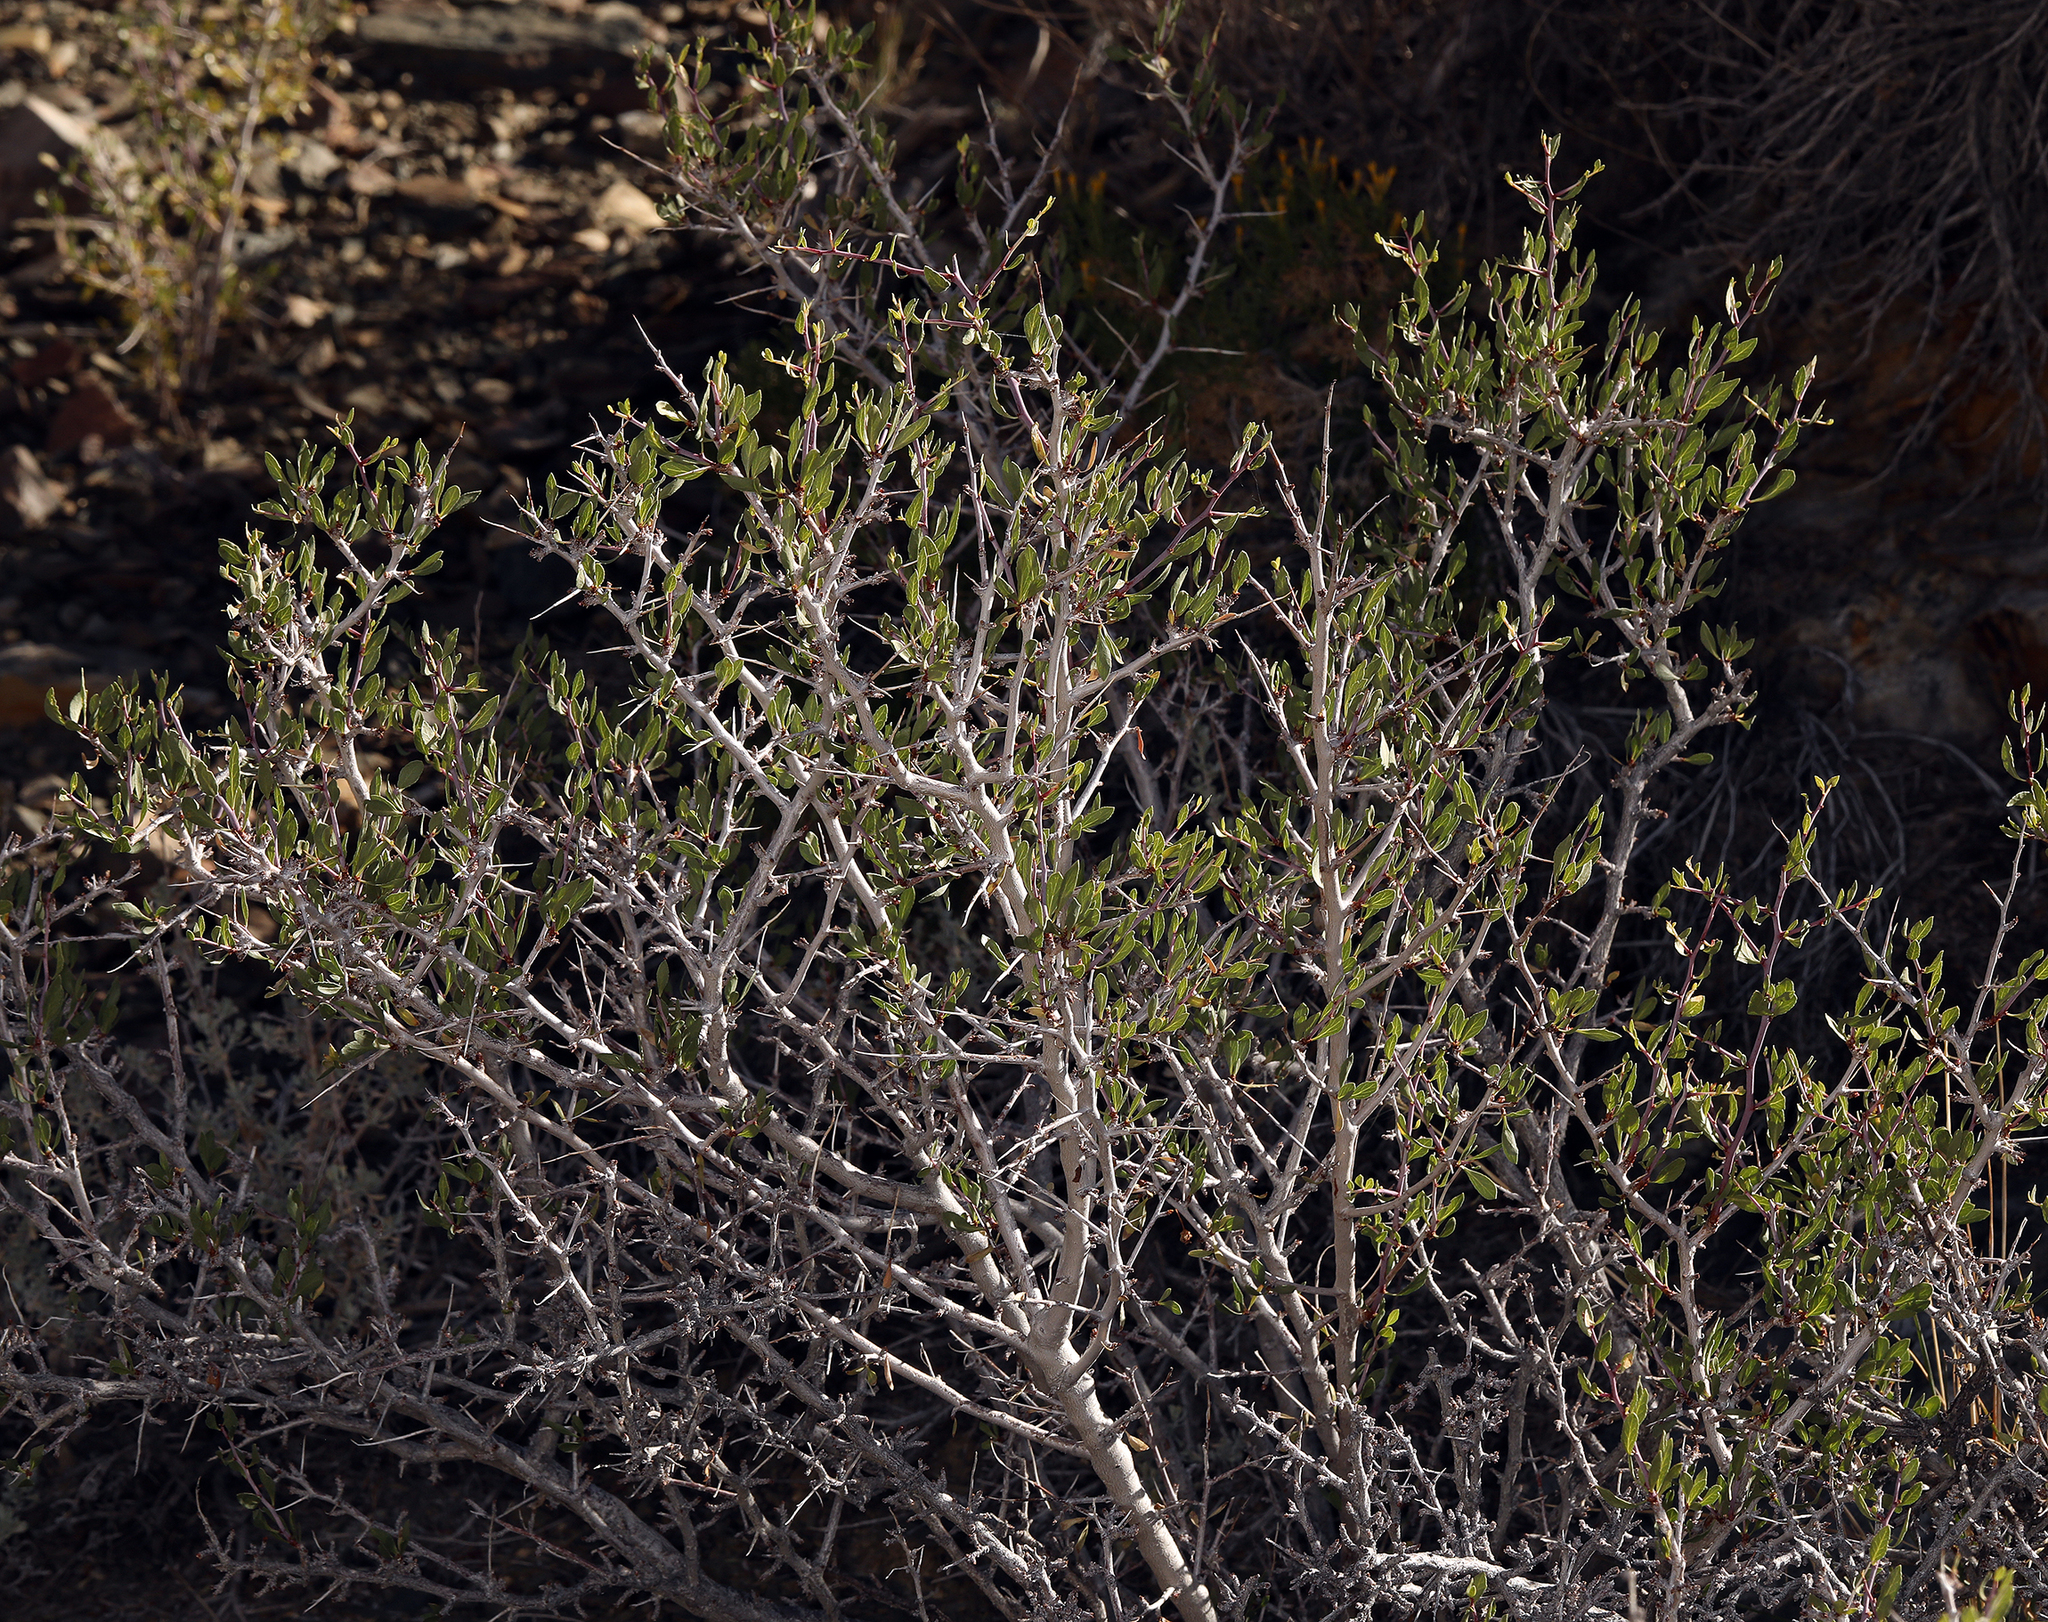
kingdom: Plantae
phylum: Tracheophyta
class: Magnoliopsida
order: Rosales
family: Rosaceae
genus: Prunus
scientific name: Prunus andersonii
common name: Desert peach
